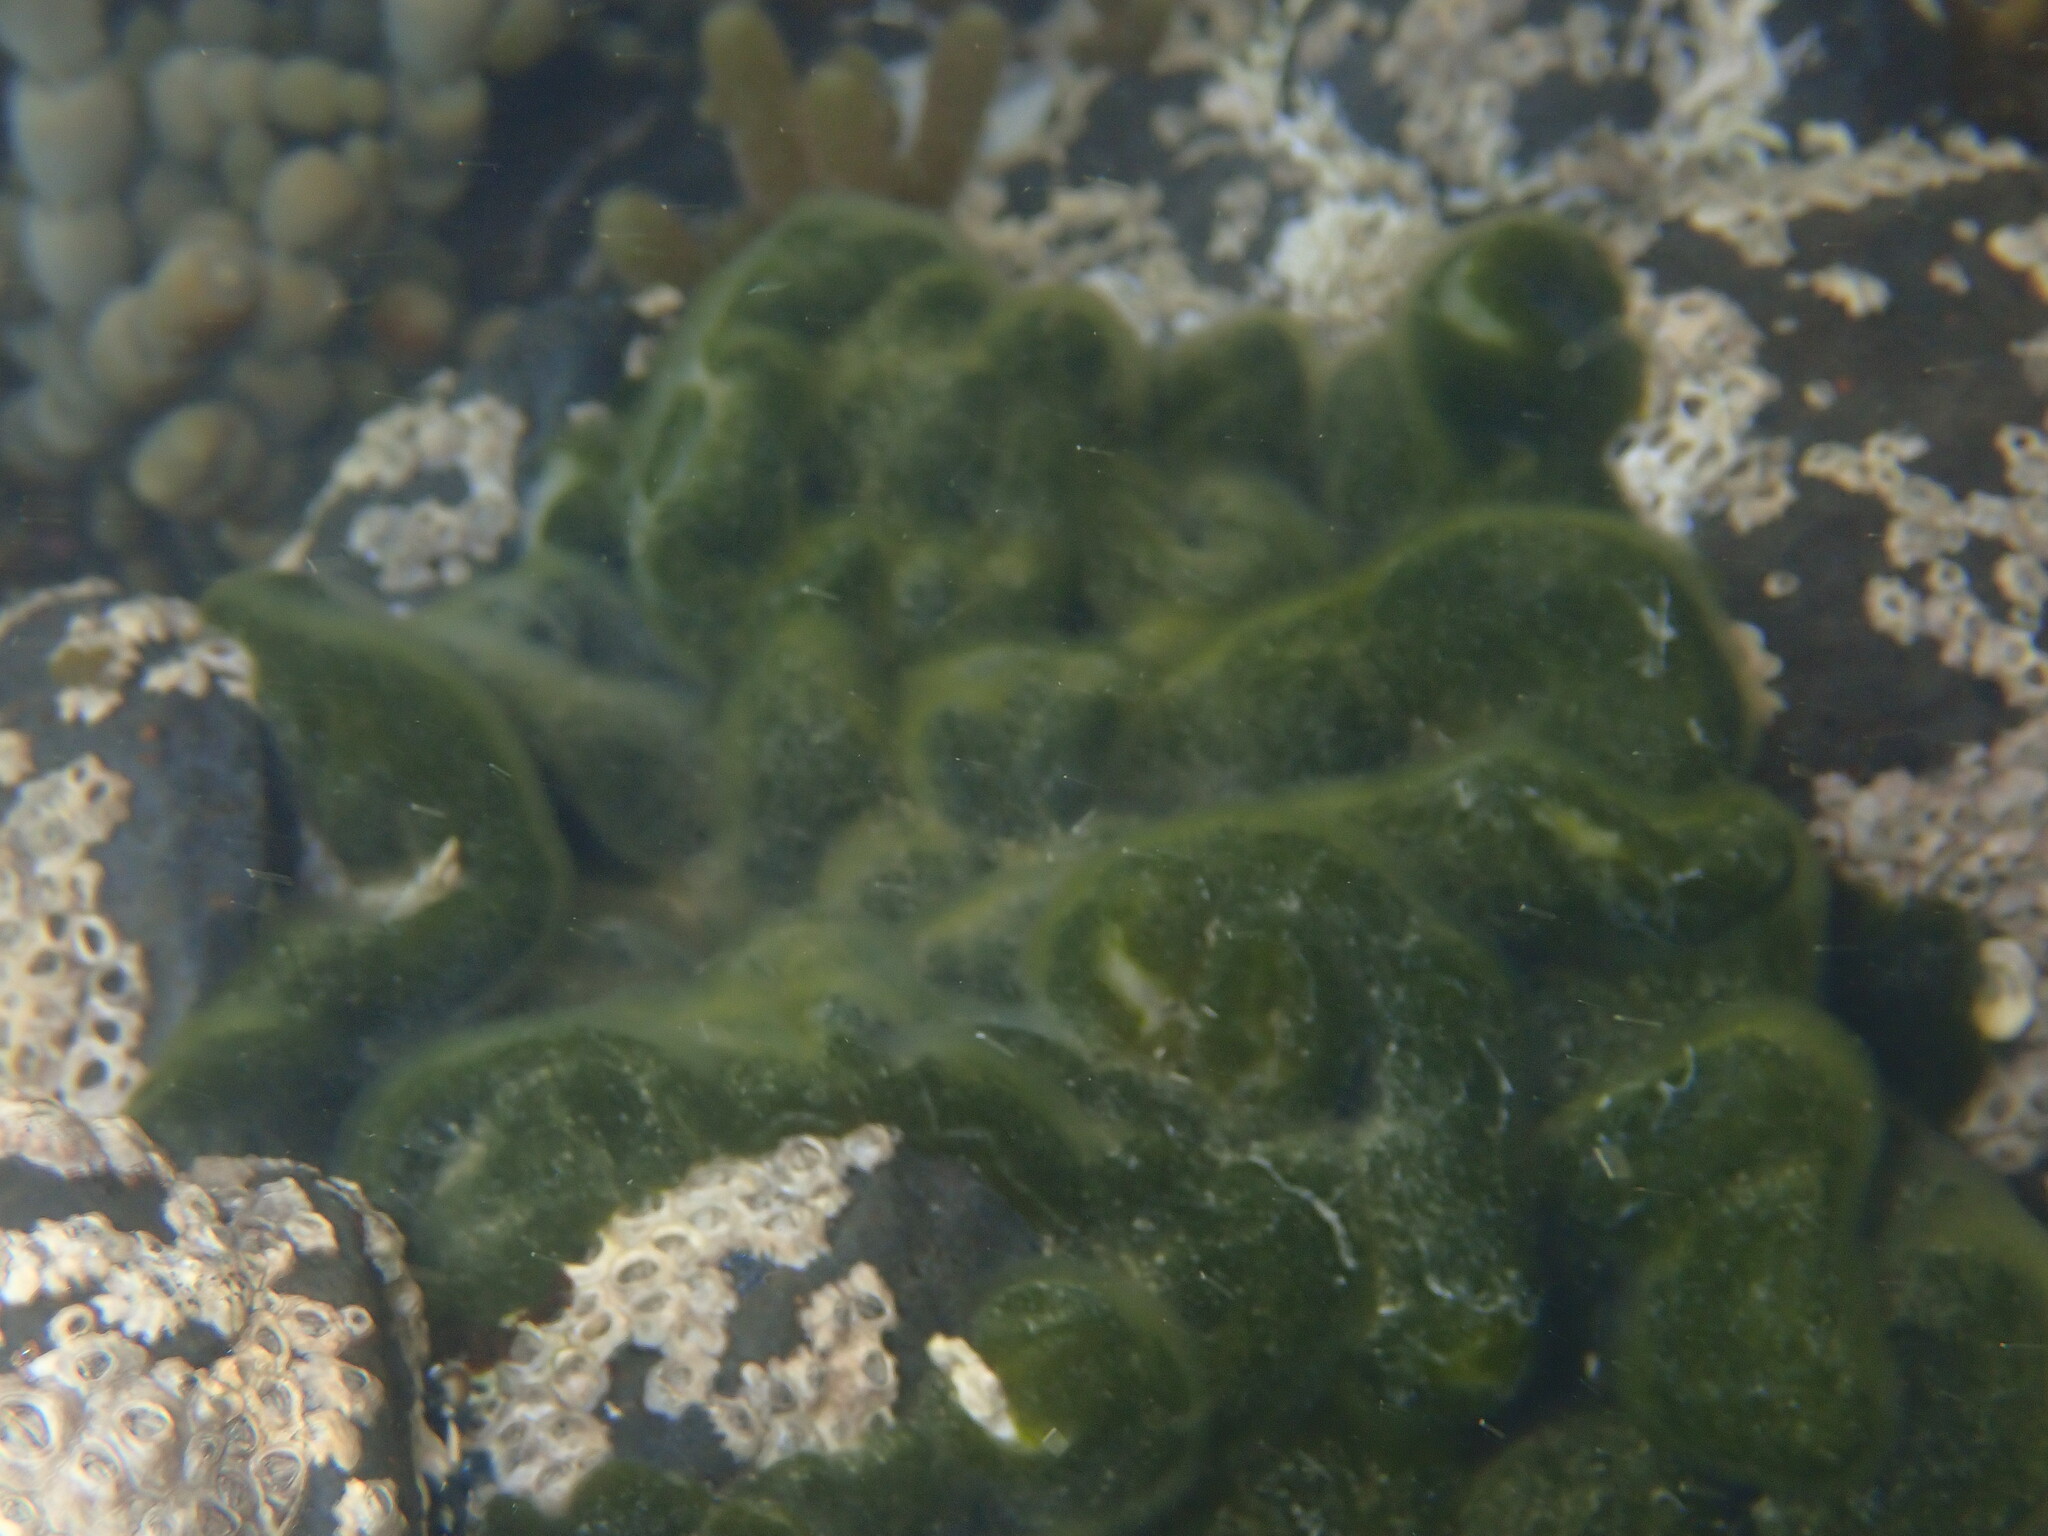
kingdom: Plantae
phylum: Chlorophyta
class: Ulvophyceae
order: Bryopsidales
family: Codiaceae
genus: Codium
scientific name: Codium convolutum
